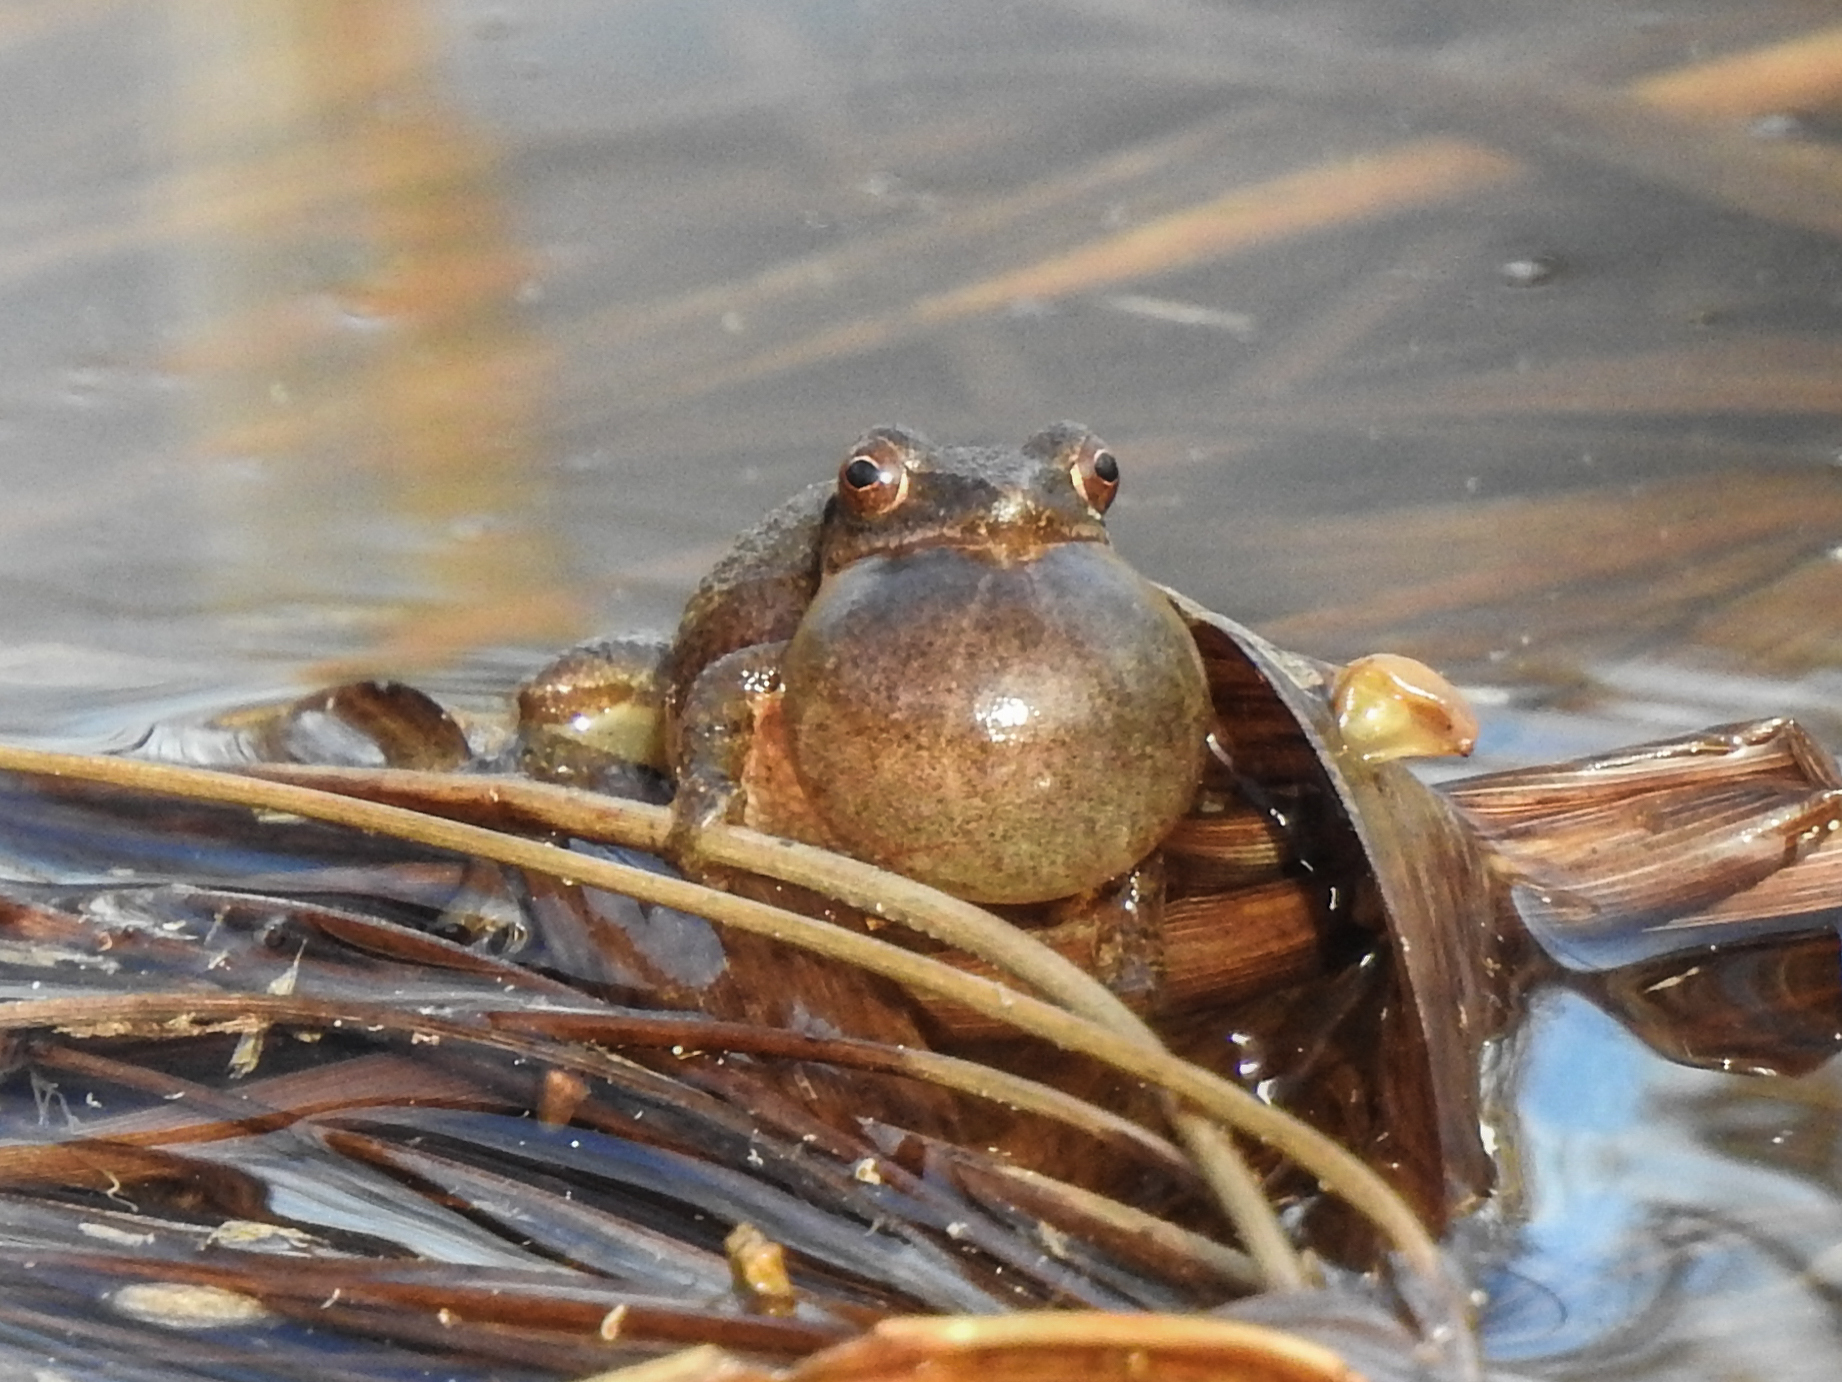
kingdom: Animalia
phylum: Chordata
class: Amphibia
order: Anura
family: Hylidae
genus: Pseudacris
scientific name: Pseudacris crucifer
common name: Spring peeper
